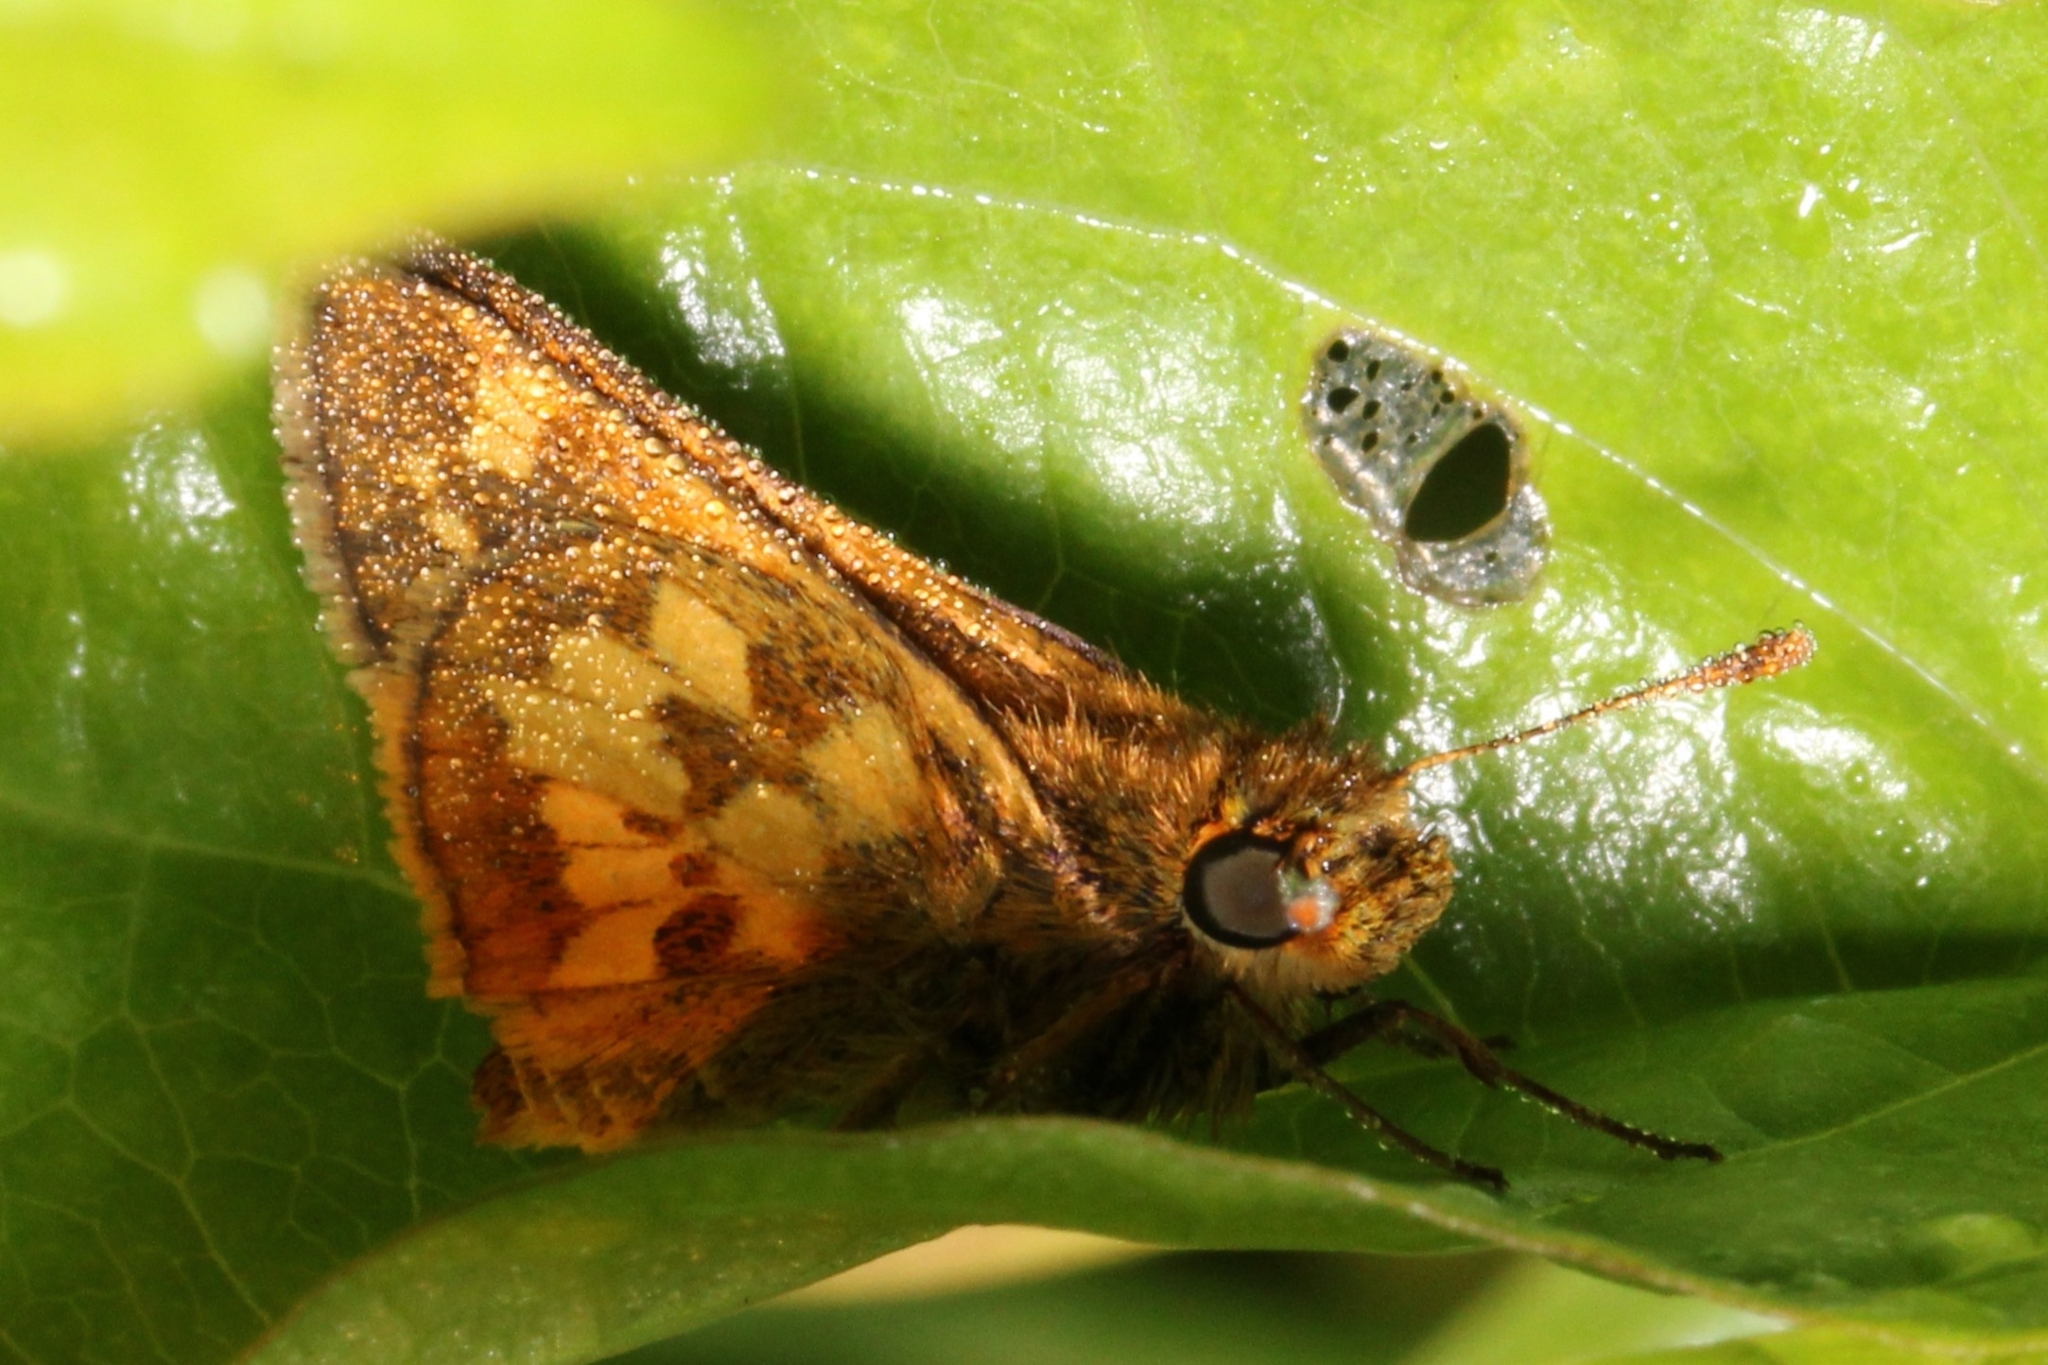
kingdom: Animalia
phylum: Arthropoda
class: Insecta
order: Lepidoptera
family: Hesperiidae
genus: Polites
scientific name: Polites coras
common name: Peck's skipper
